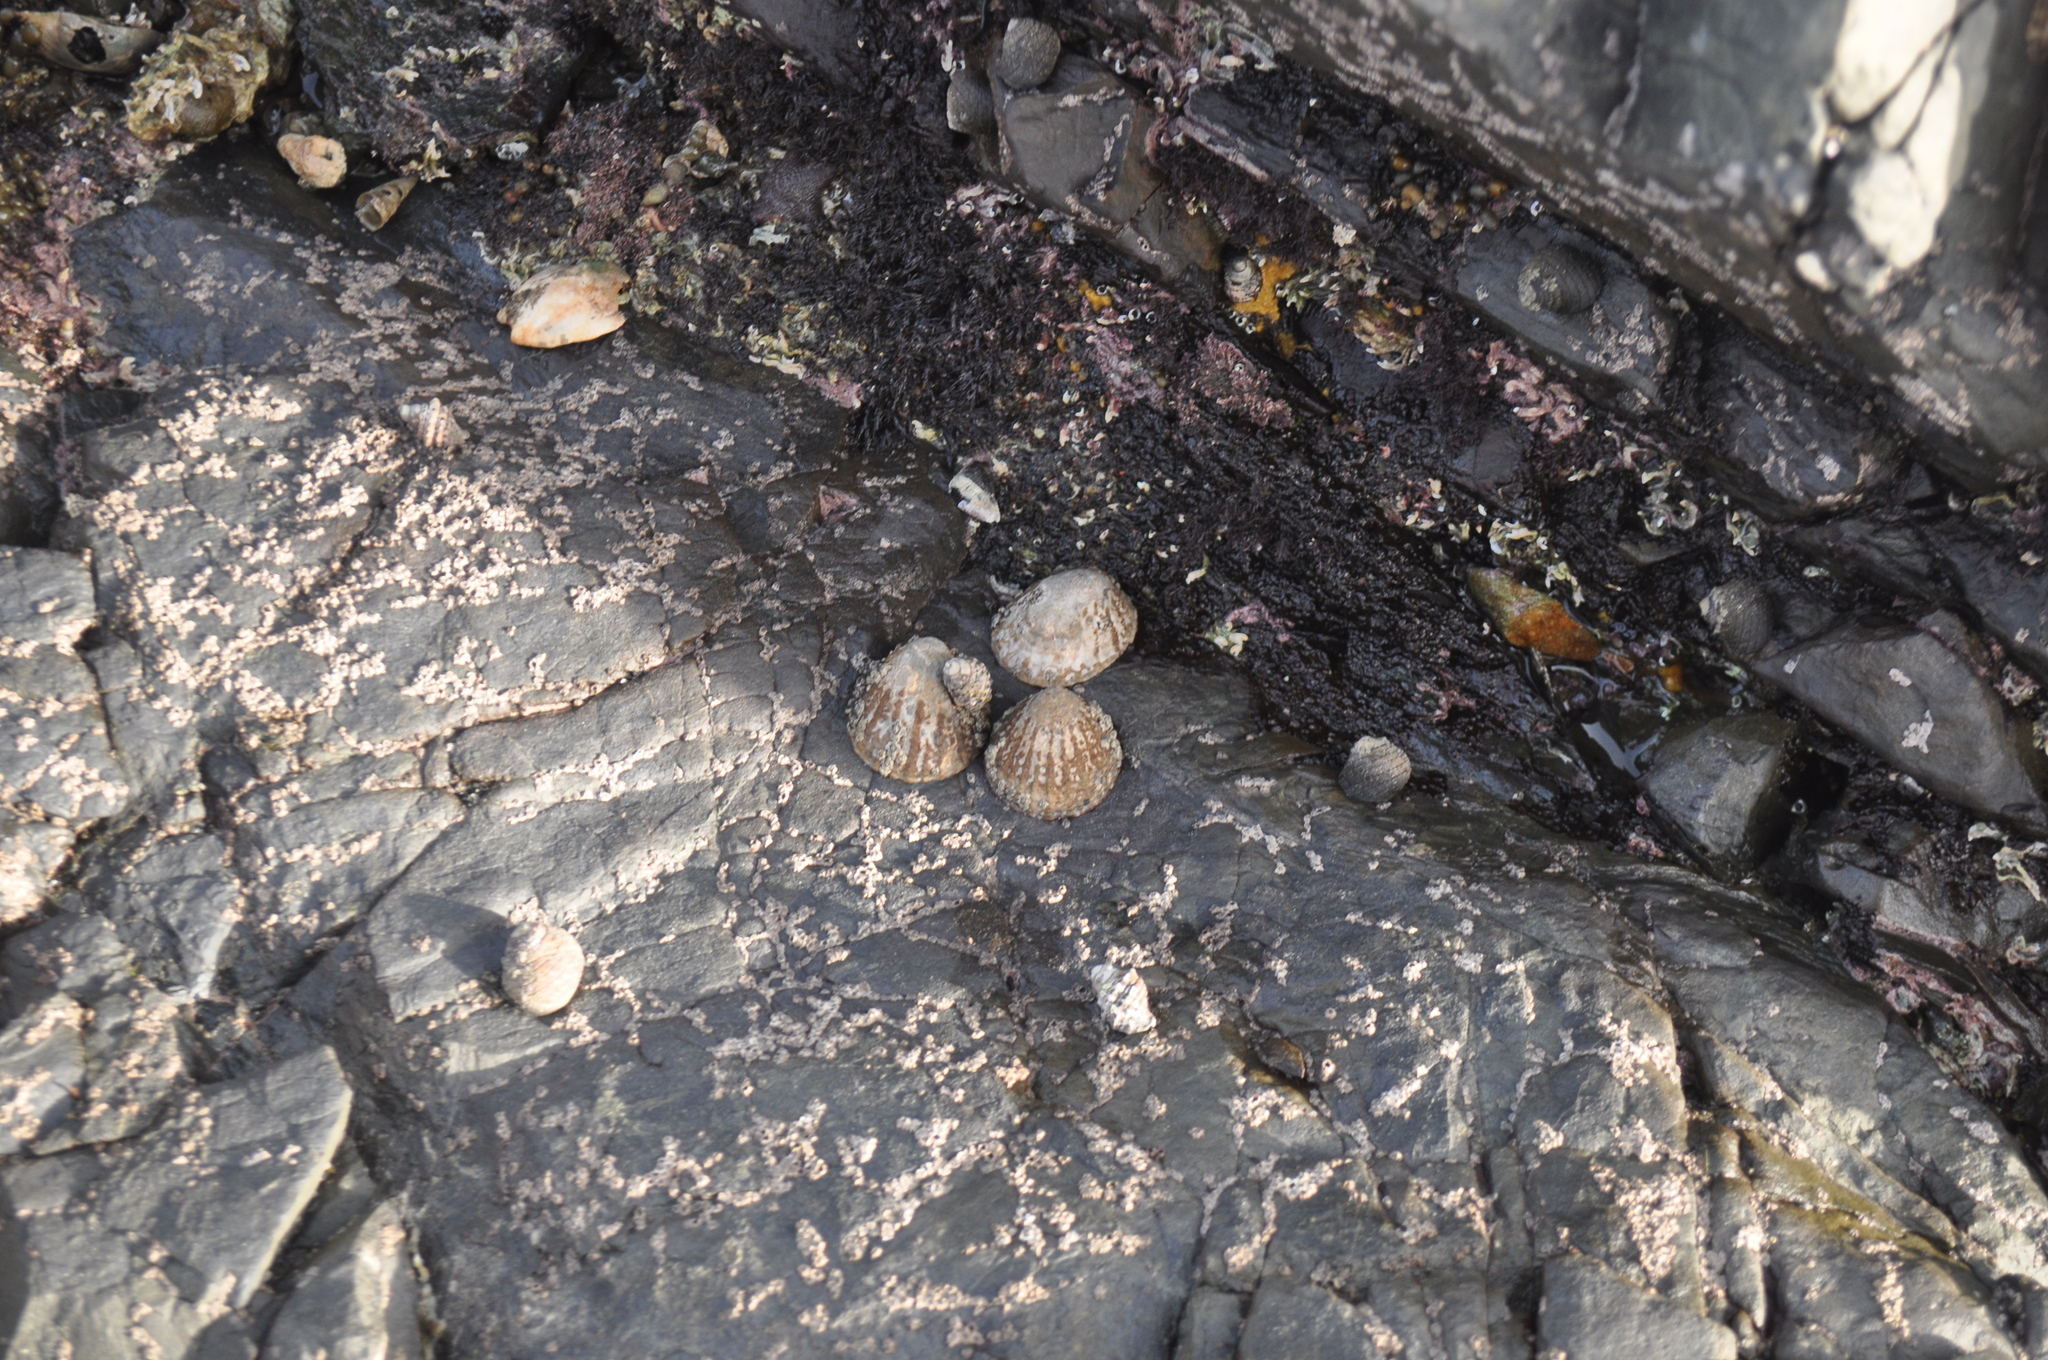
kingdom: Animalia
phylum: Mollusca
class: Gastropoda
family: Nacellidae
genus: Cellana
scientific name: Cellana denticulata
